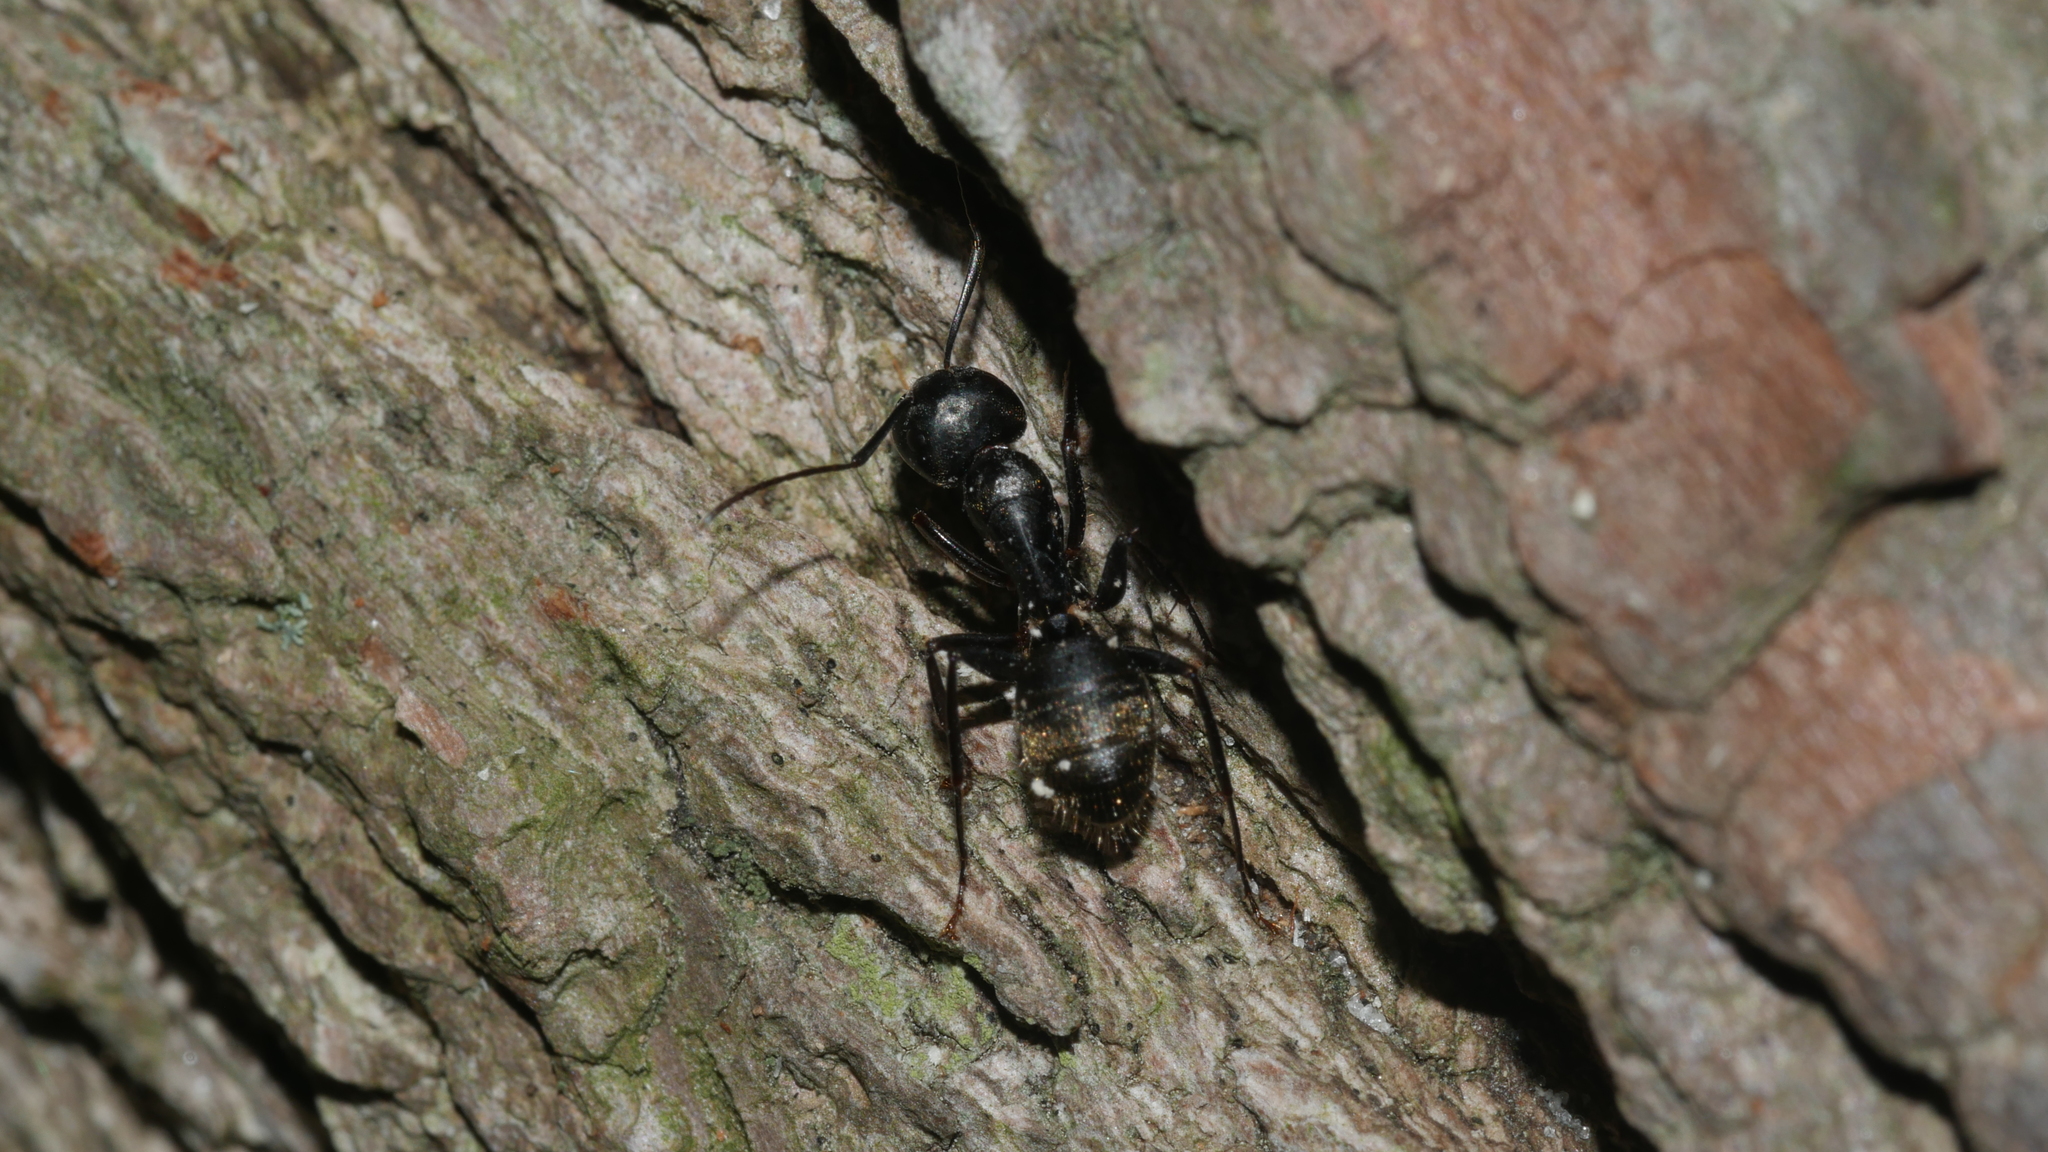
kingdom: Animalia
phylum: Arthropoda
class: Insecta
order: Hymenoptera
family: Formicidae
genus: Camponotus
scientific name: Camponotus pennsylvanicus
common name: Black carpenter ant
